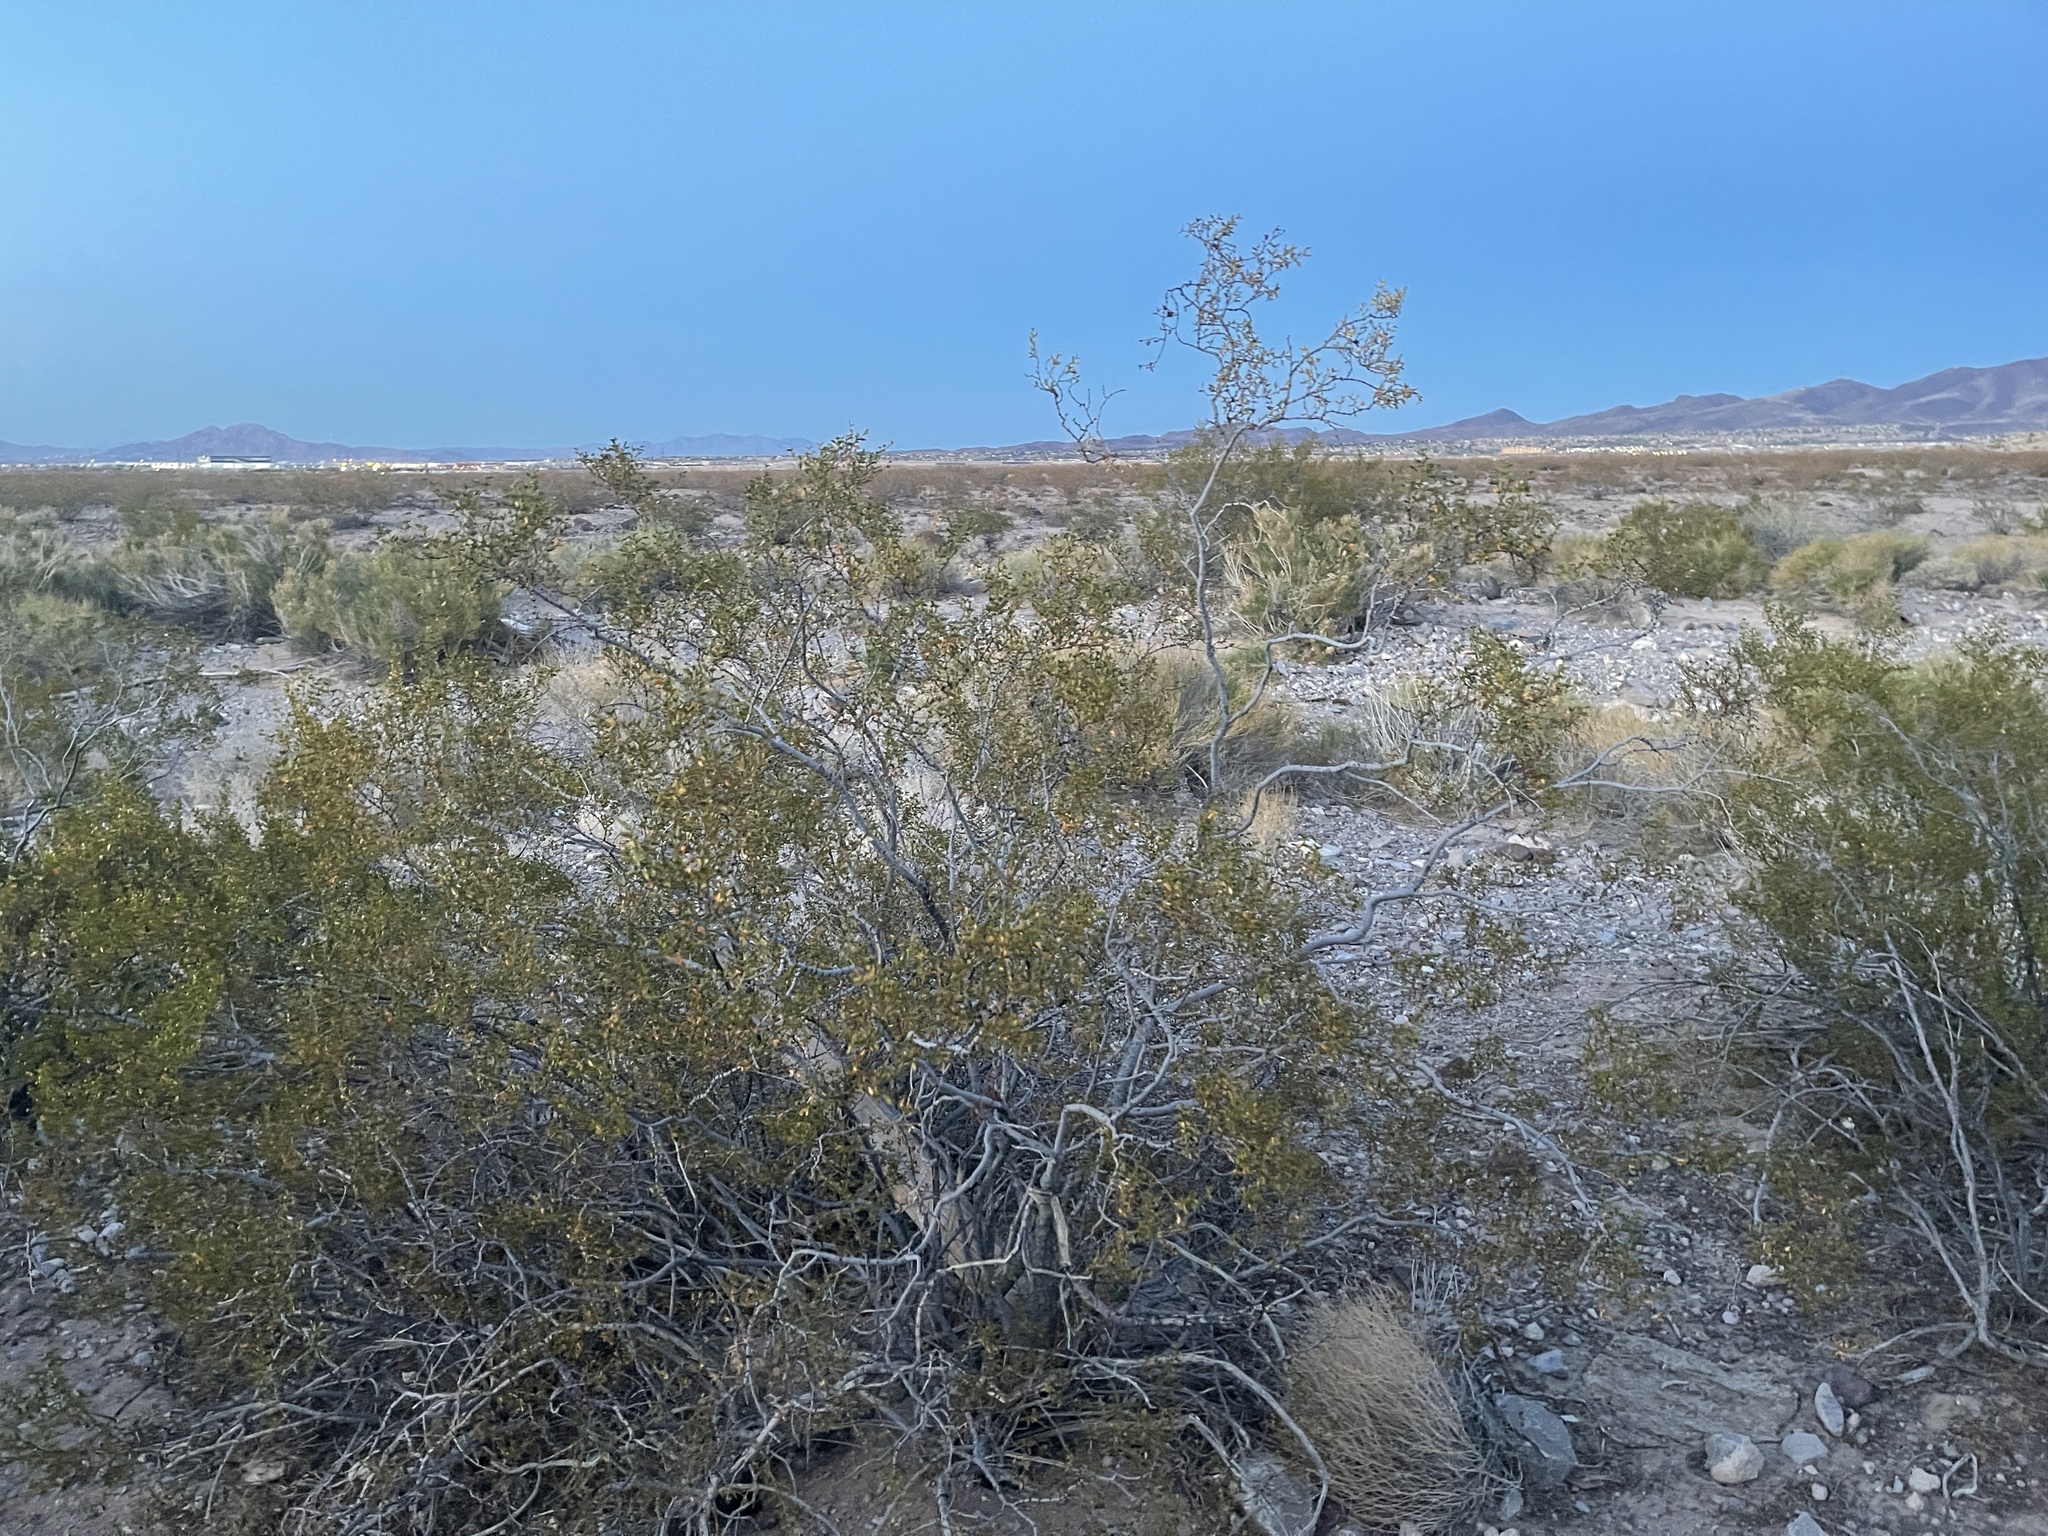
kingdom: Plantae
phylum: Tracheophyta
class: Magnoliopsida
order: Zygophyllales
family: Zygophyllaceae
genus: Larrea
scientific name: Larrea tridentata
